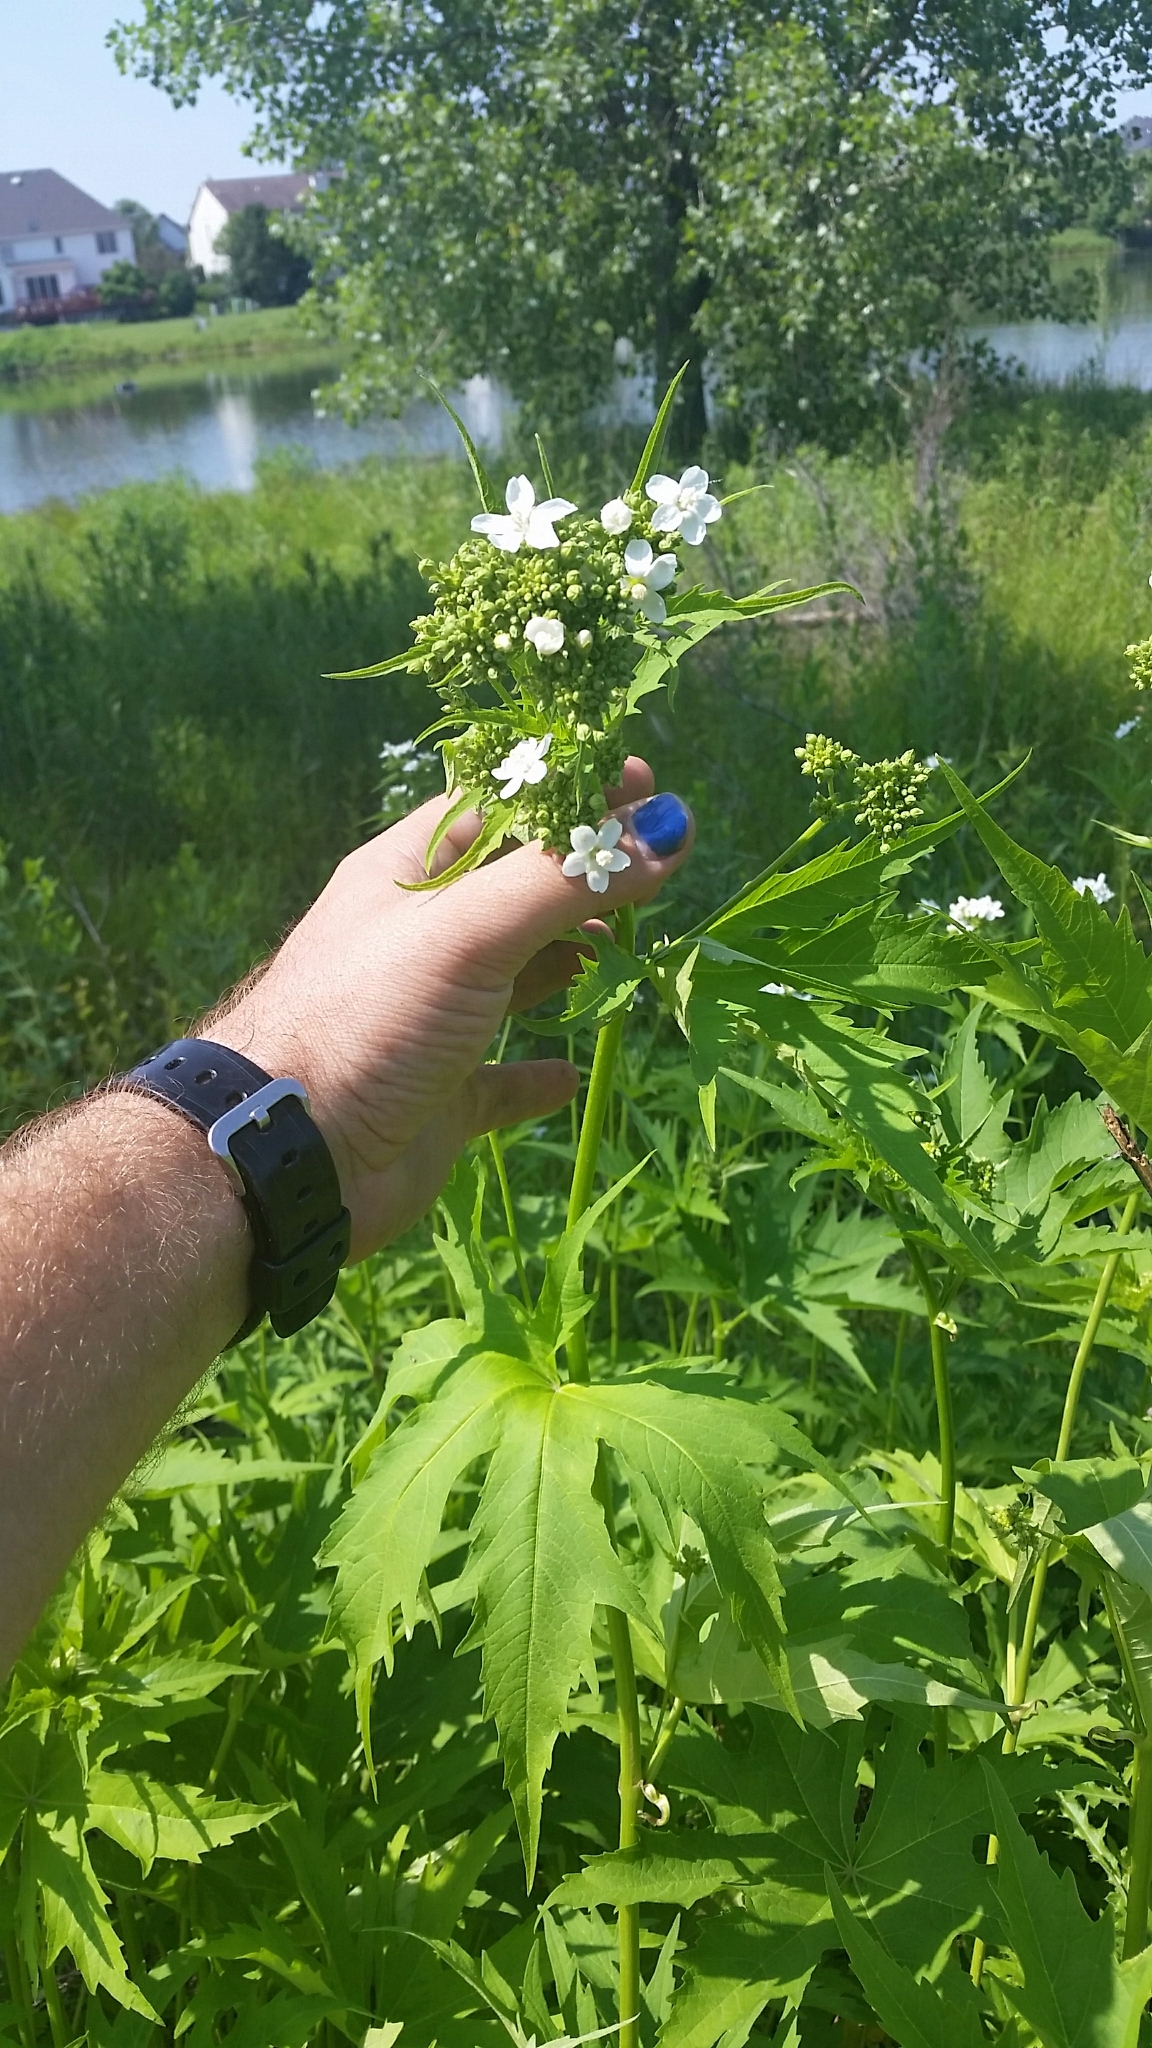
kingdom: Plantae
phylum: Tracheophyta
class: Magnoliopsida
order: Malvales
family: Malvaceae
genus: Napaea
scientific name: Napaea dioica
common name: Glade-mallow
